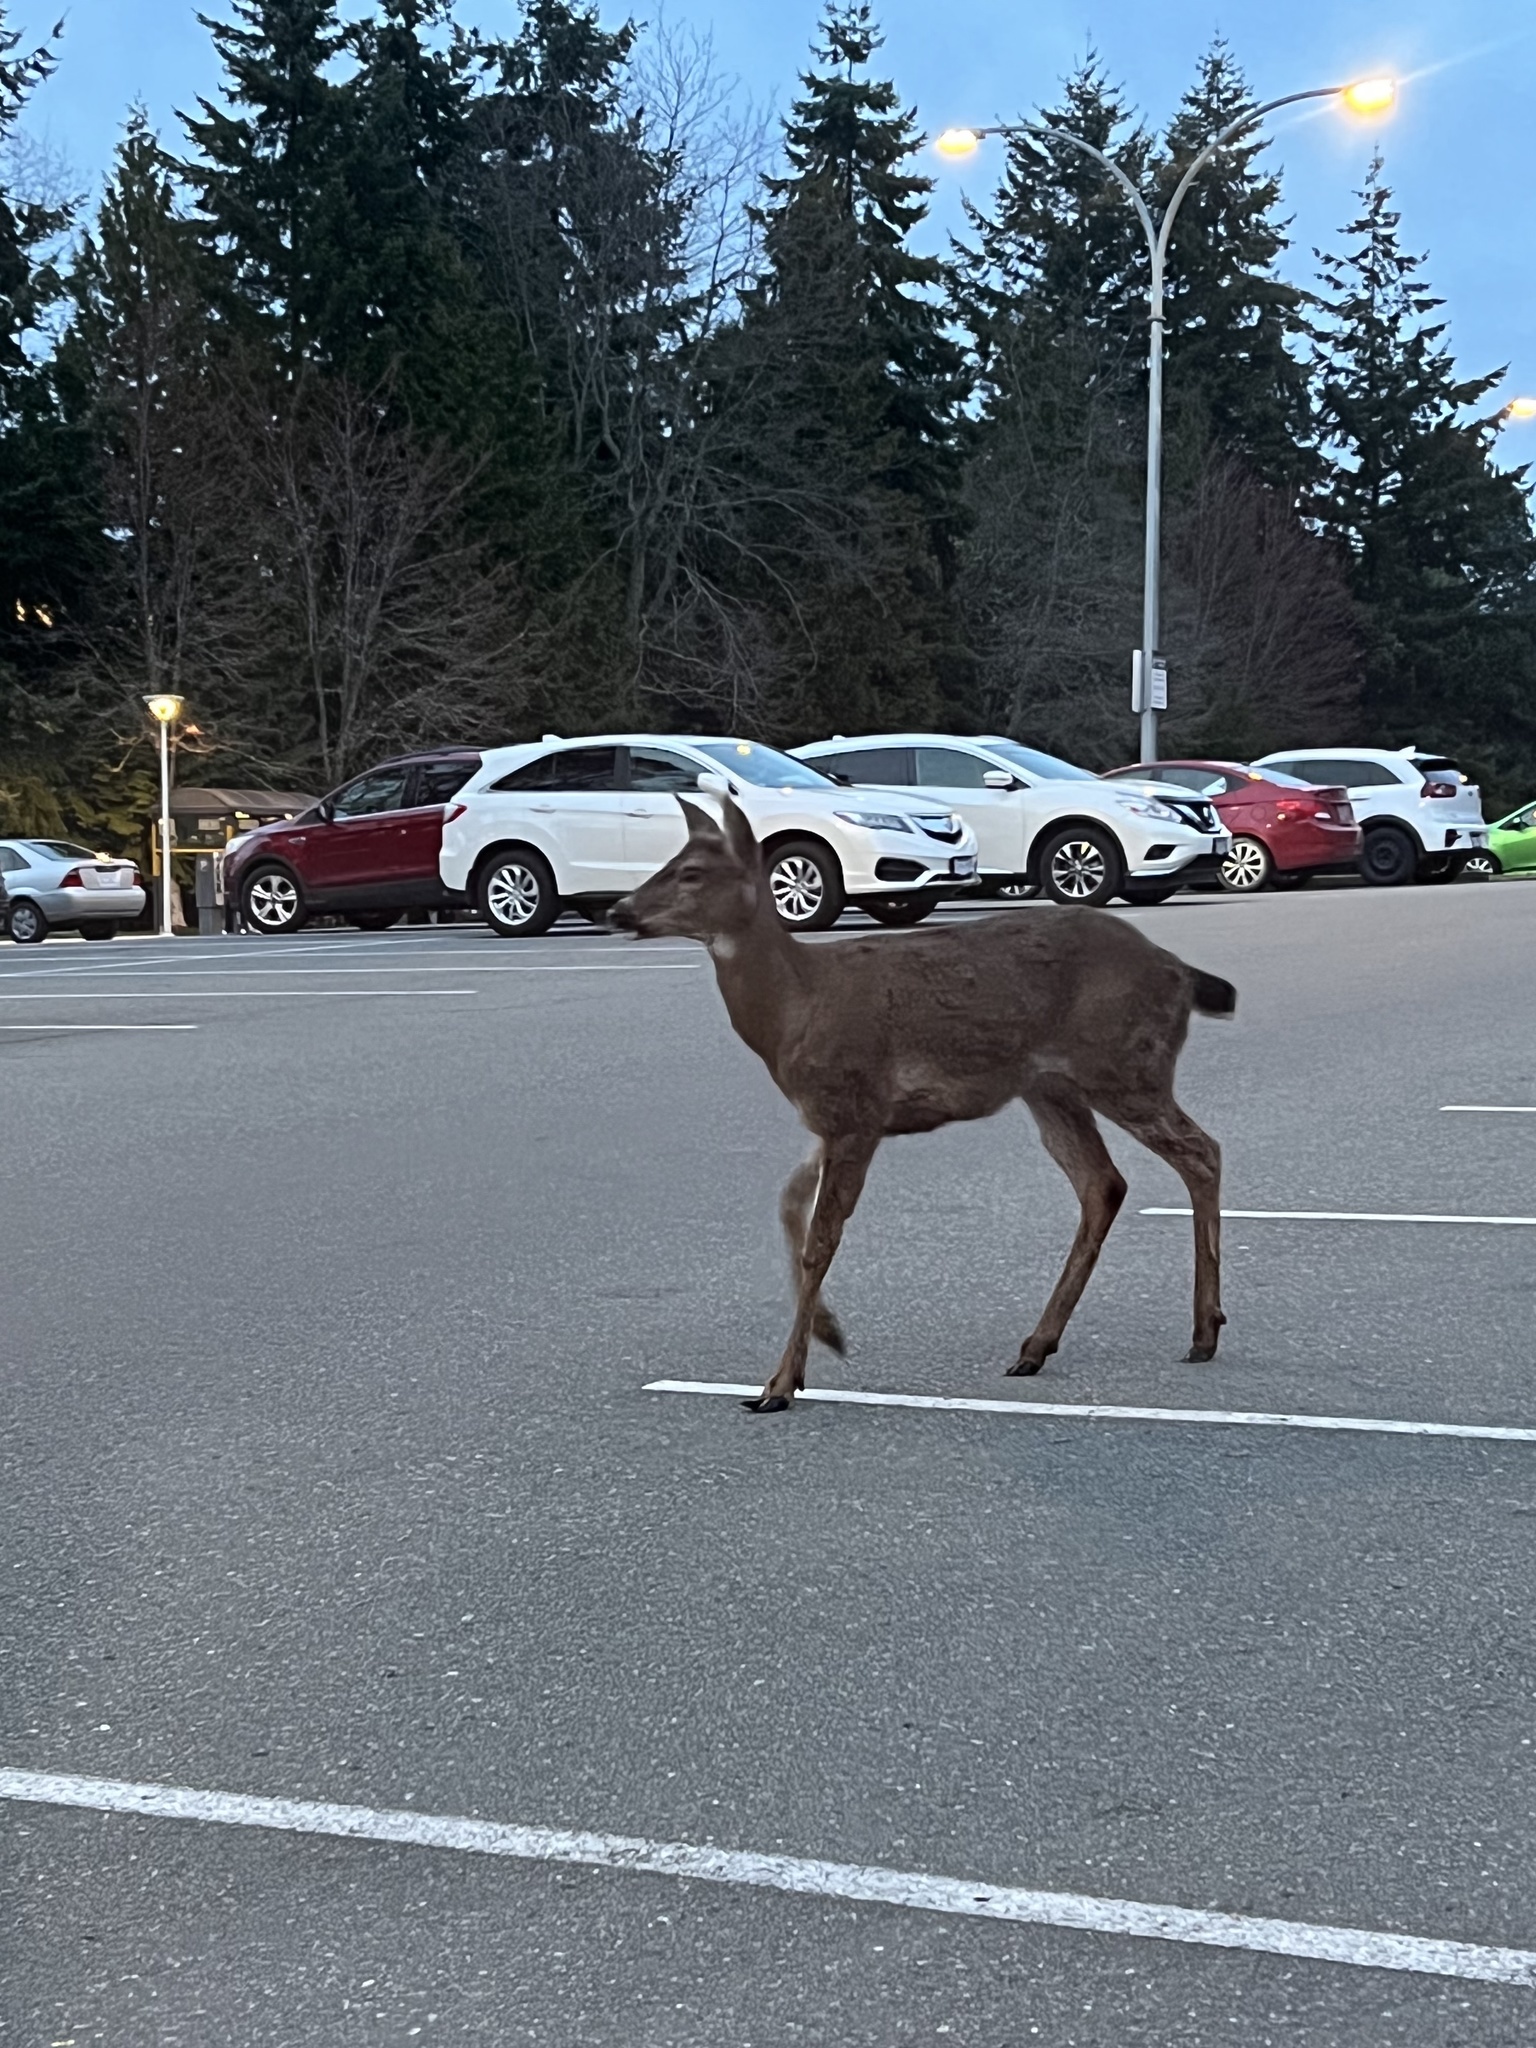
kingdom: Animalia
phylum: Chordata
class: Mammalia
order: Artiodactyla
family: Cervidae
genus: Odocoileus
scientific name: Odocoileus hemionus
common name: Mule deer
